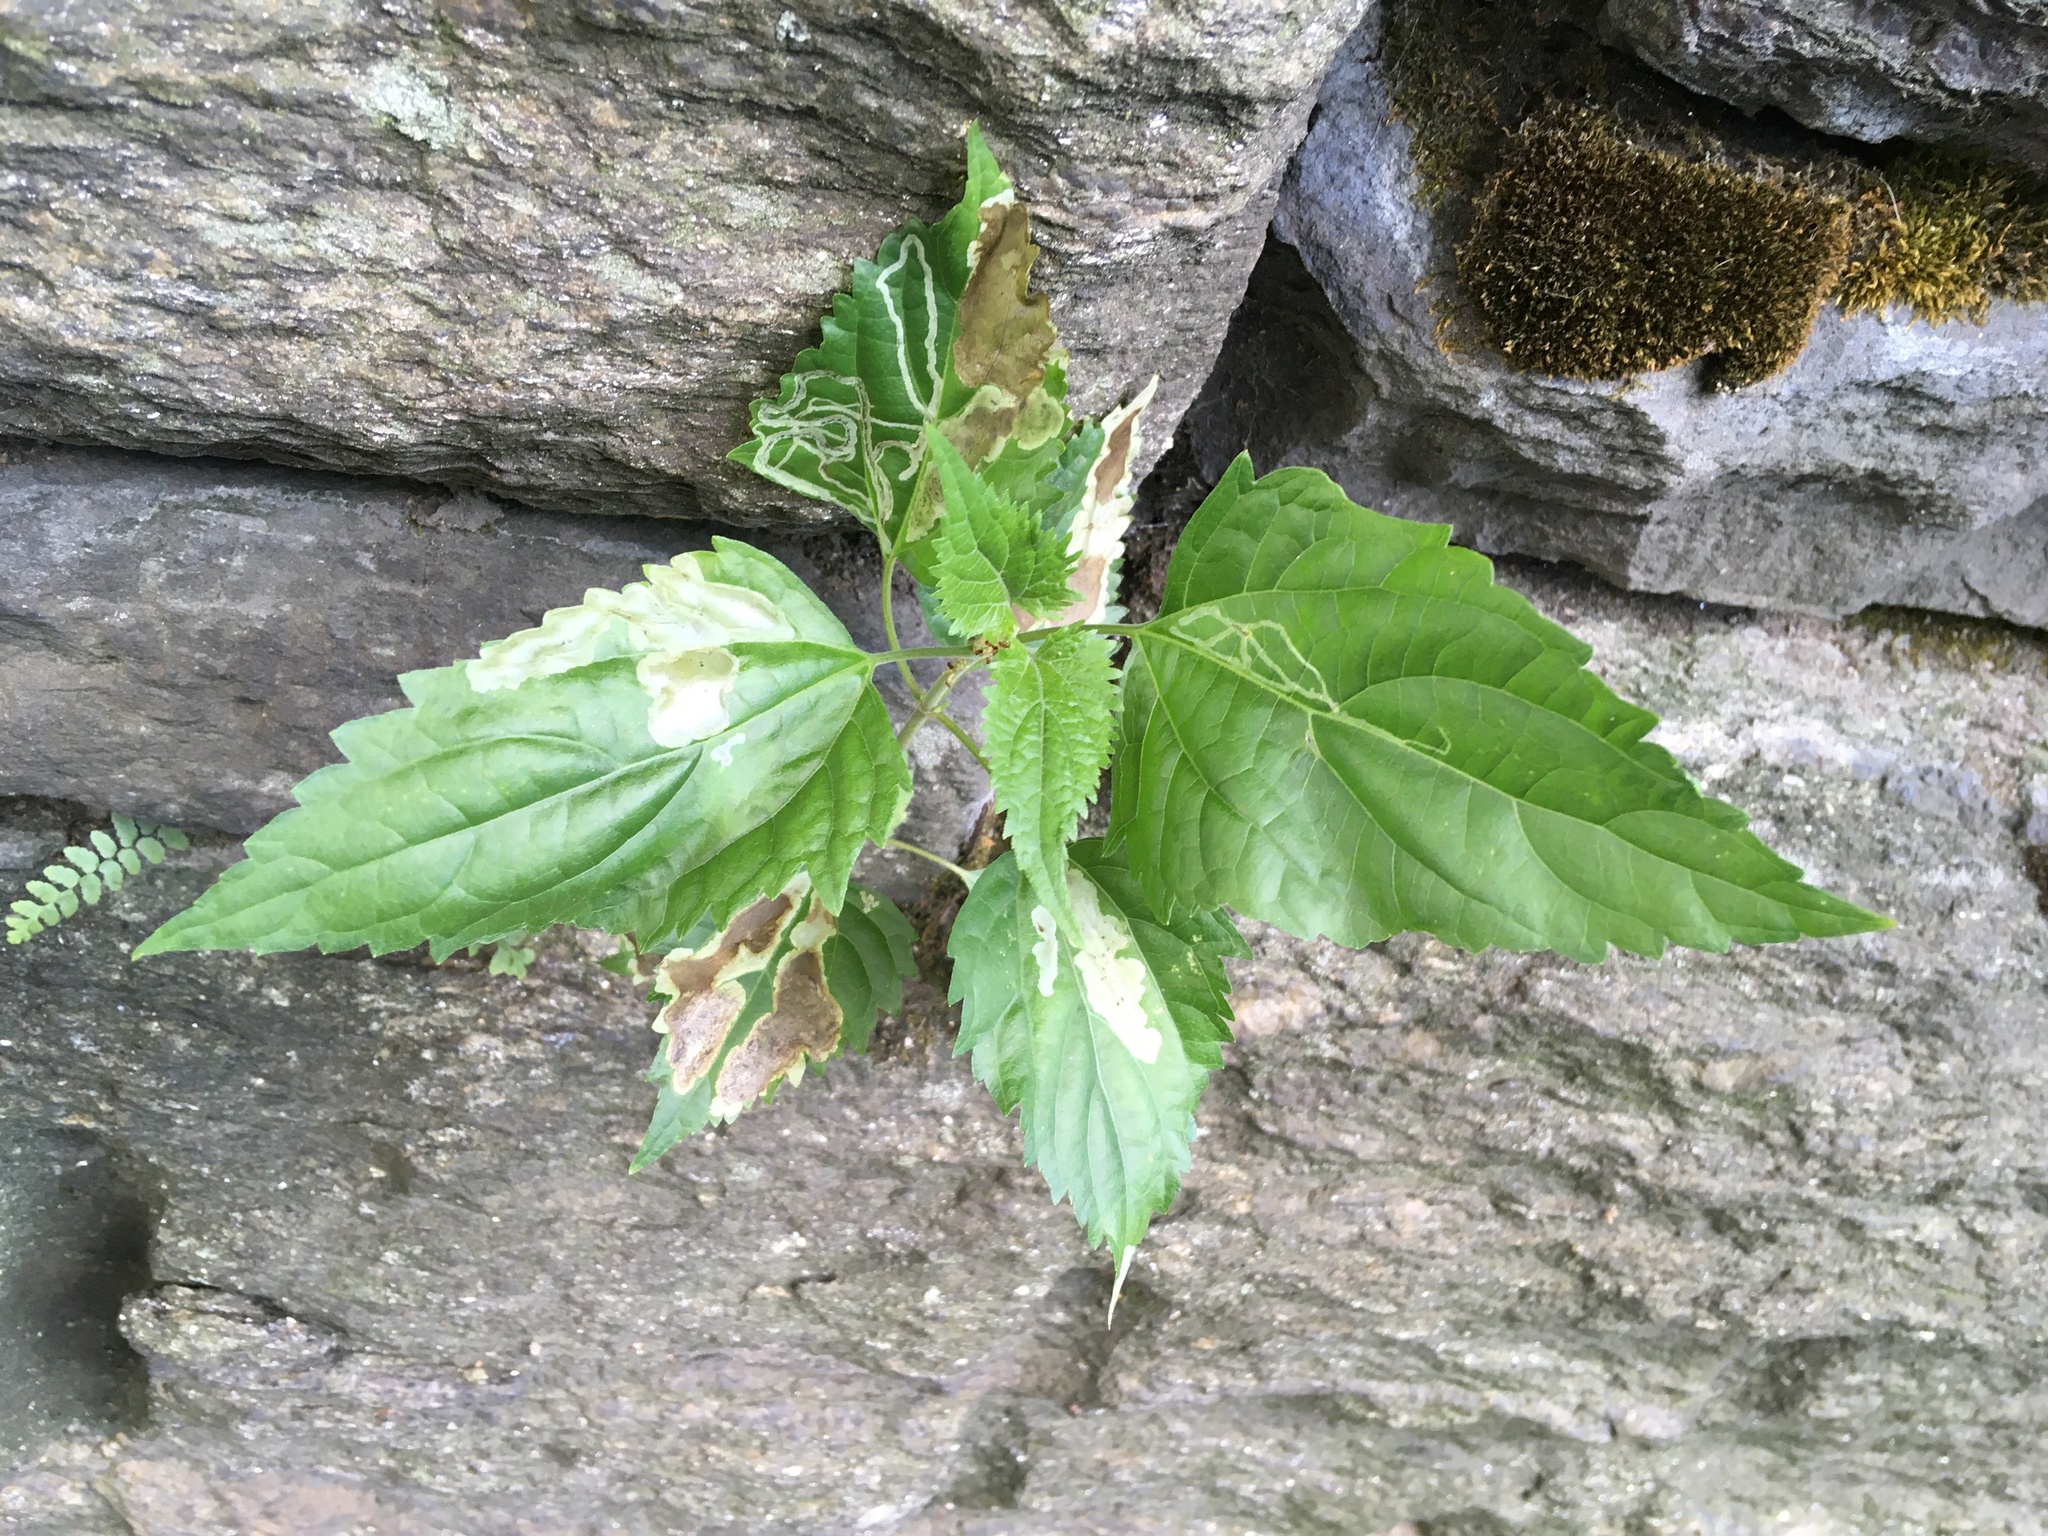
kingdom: Plantae
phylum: Tracheophyta
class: Magnoliopsida
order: Asterales
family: Asteraceae
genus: Ageratina
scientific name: Ageratina altissima
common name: White snakeroot
